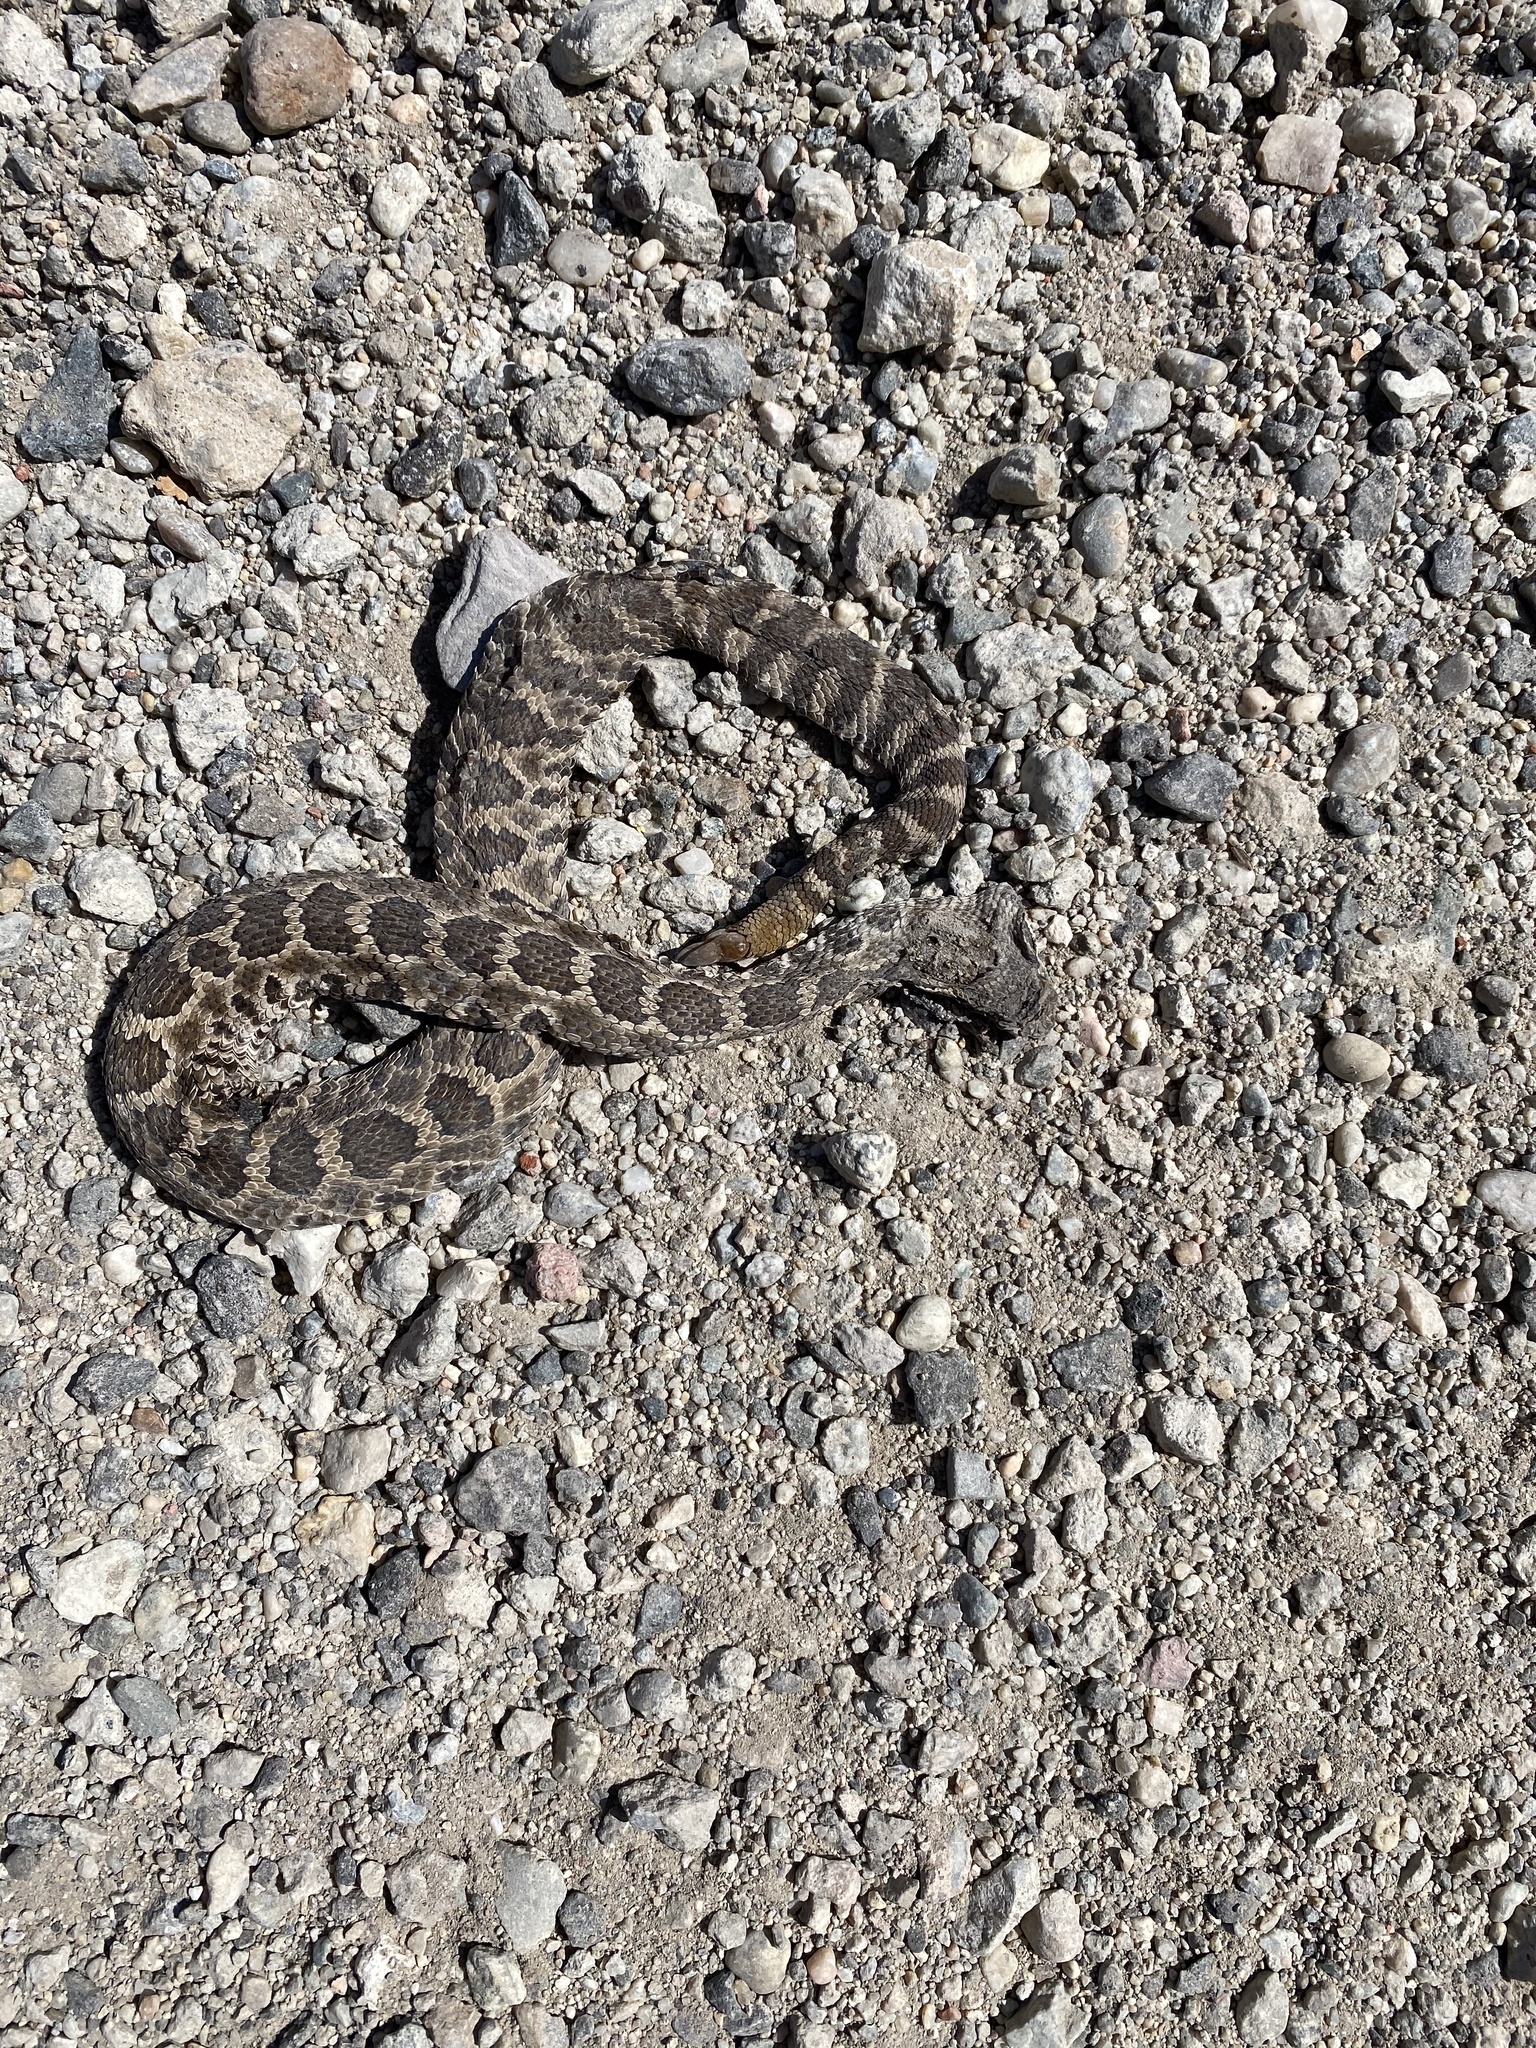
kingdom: Animalia
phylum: Chordata
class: Squamata
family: Viperidae
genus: Crotalus
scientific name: Crotalus oreganus
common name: Abyssus
